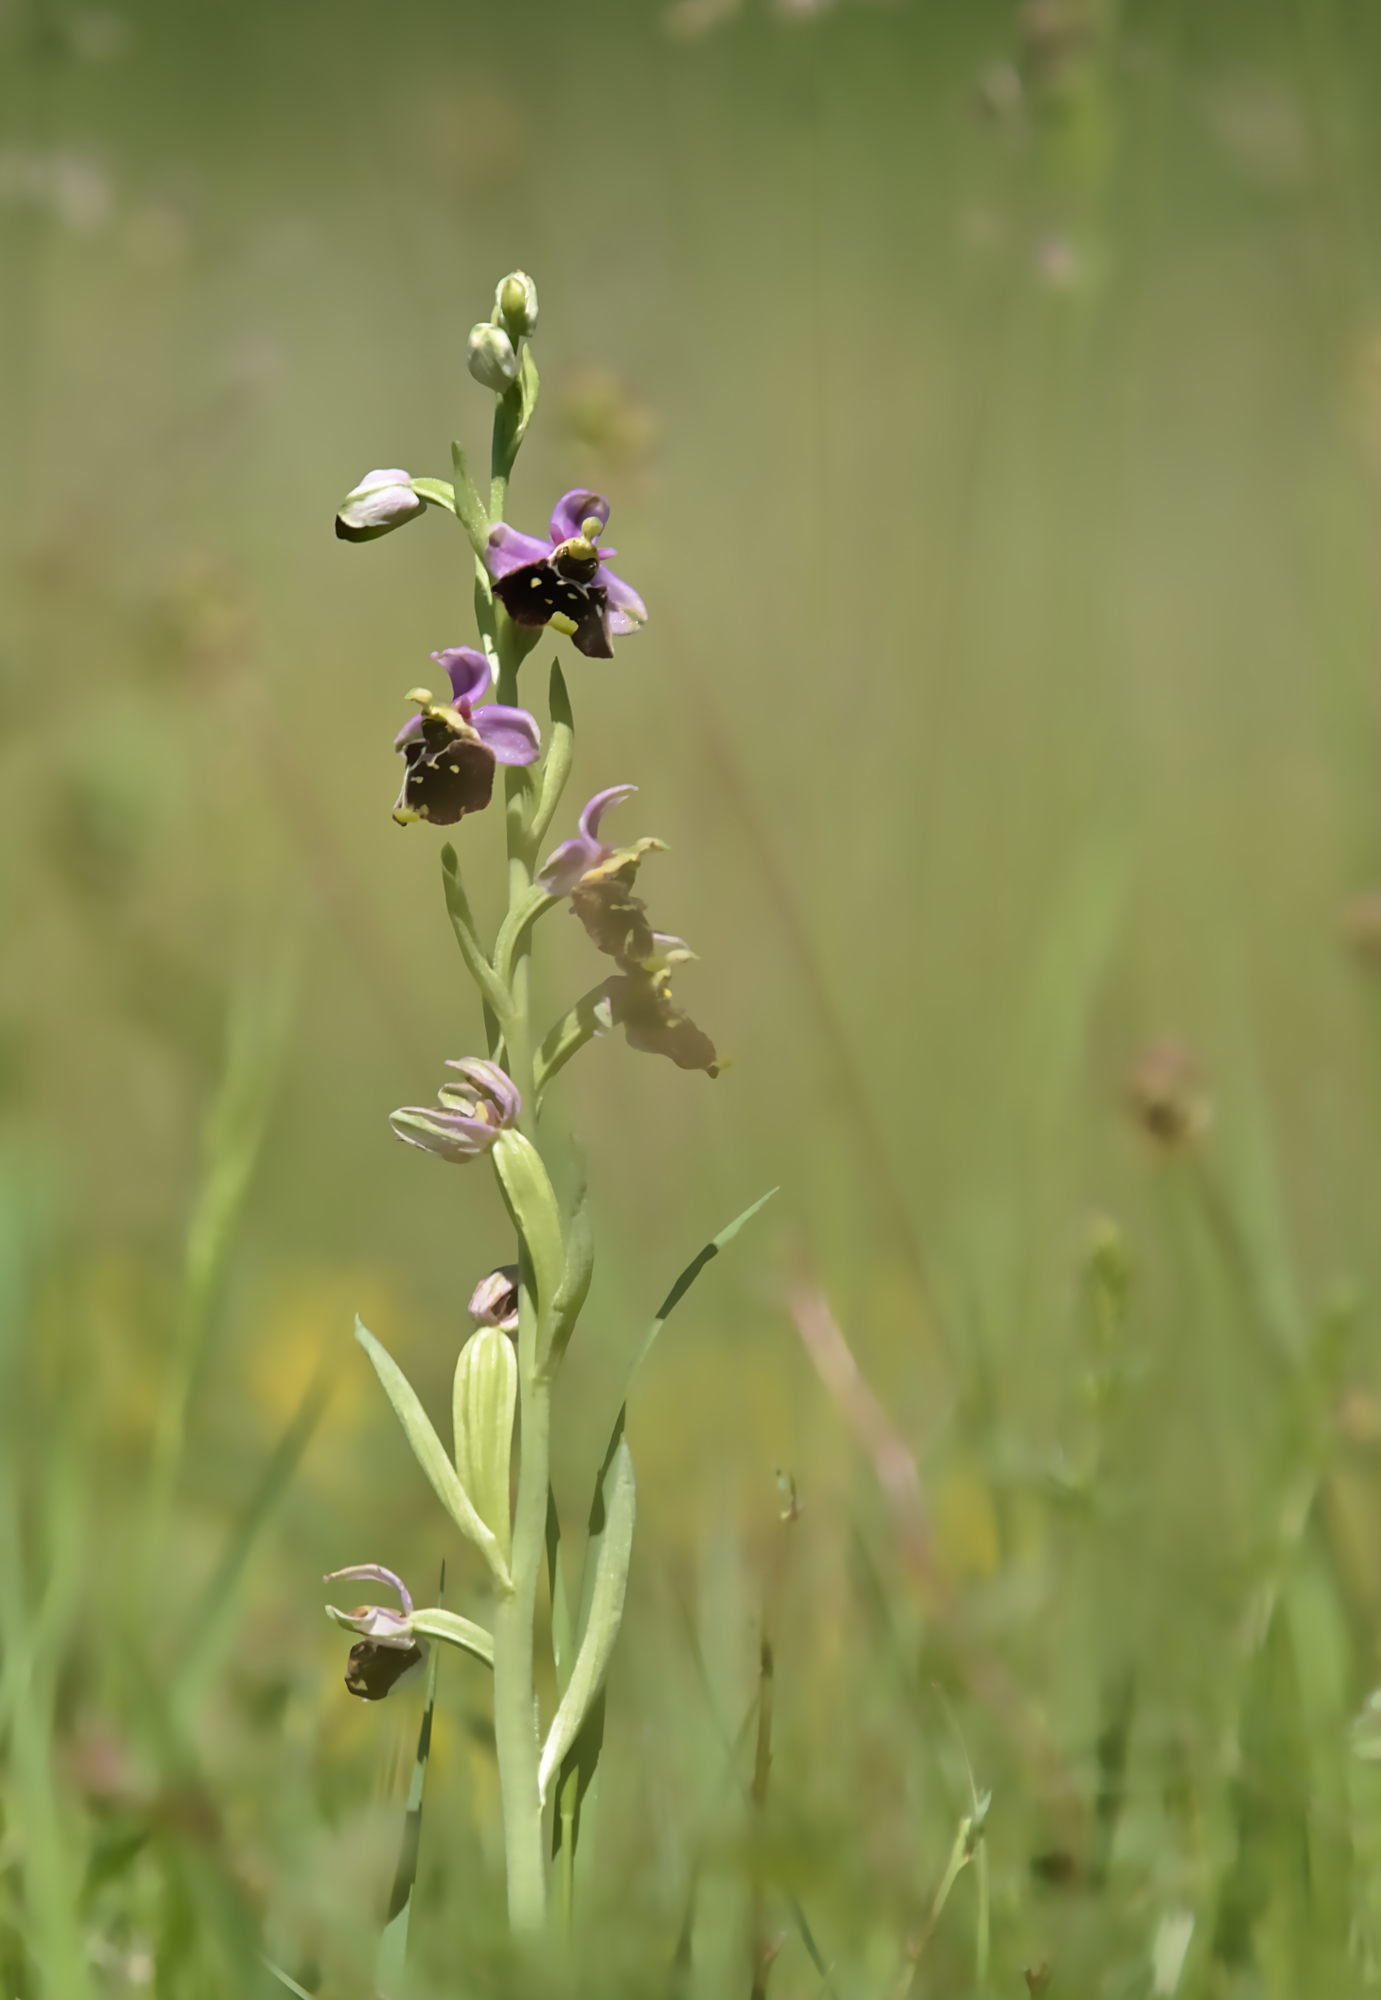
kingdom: Plantae
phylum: Tracheophyta
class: Liliopsida
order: Asparagales
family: Orchidaceae
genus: Ophrys
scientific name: Ophrys holosericea
